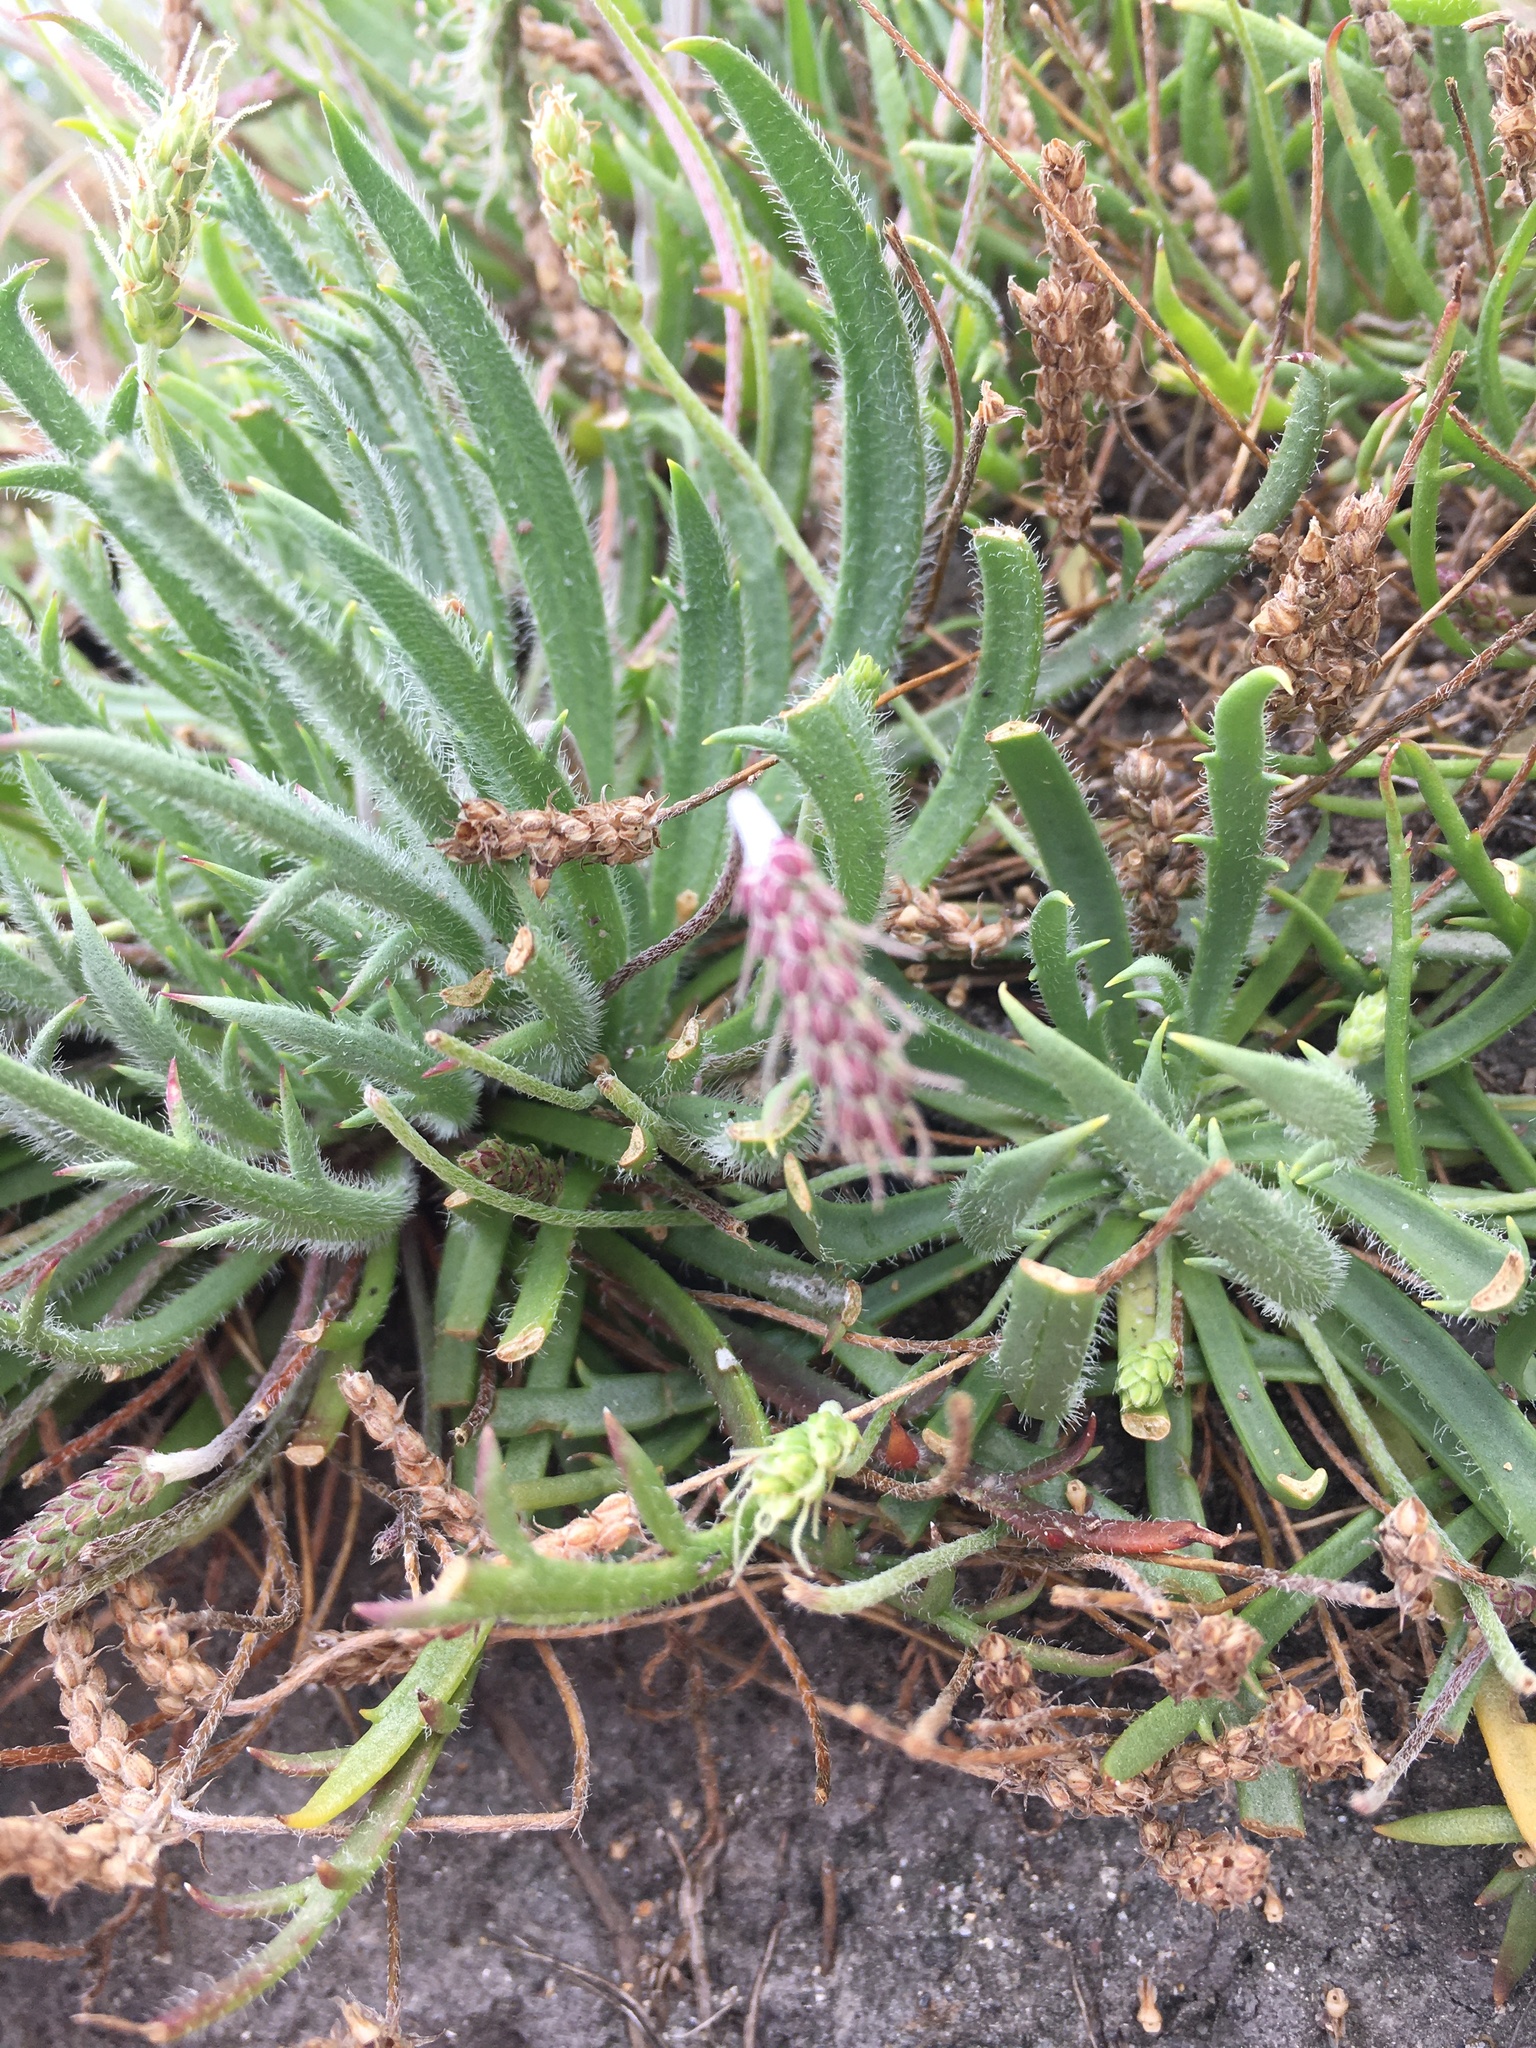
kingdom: Plantae
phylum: Tracheophyta
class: Magnoliopsida
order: Lamiales
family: Plantaginaceae
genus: Plantago
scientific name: Plantago coronopus
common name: Buck's-horn plantain
